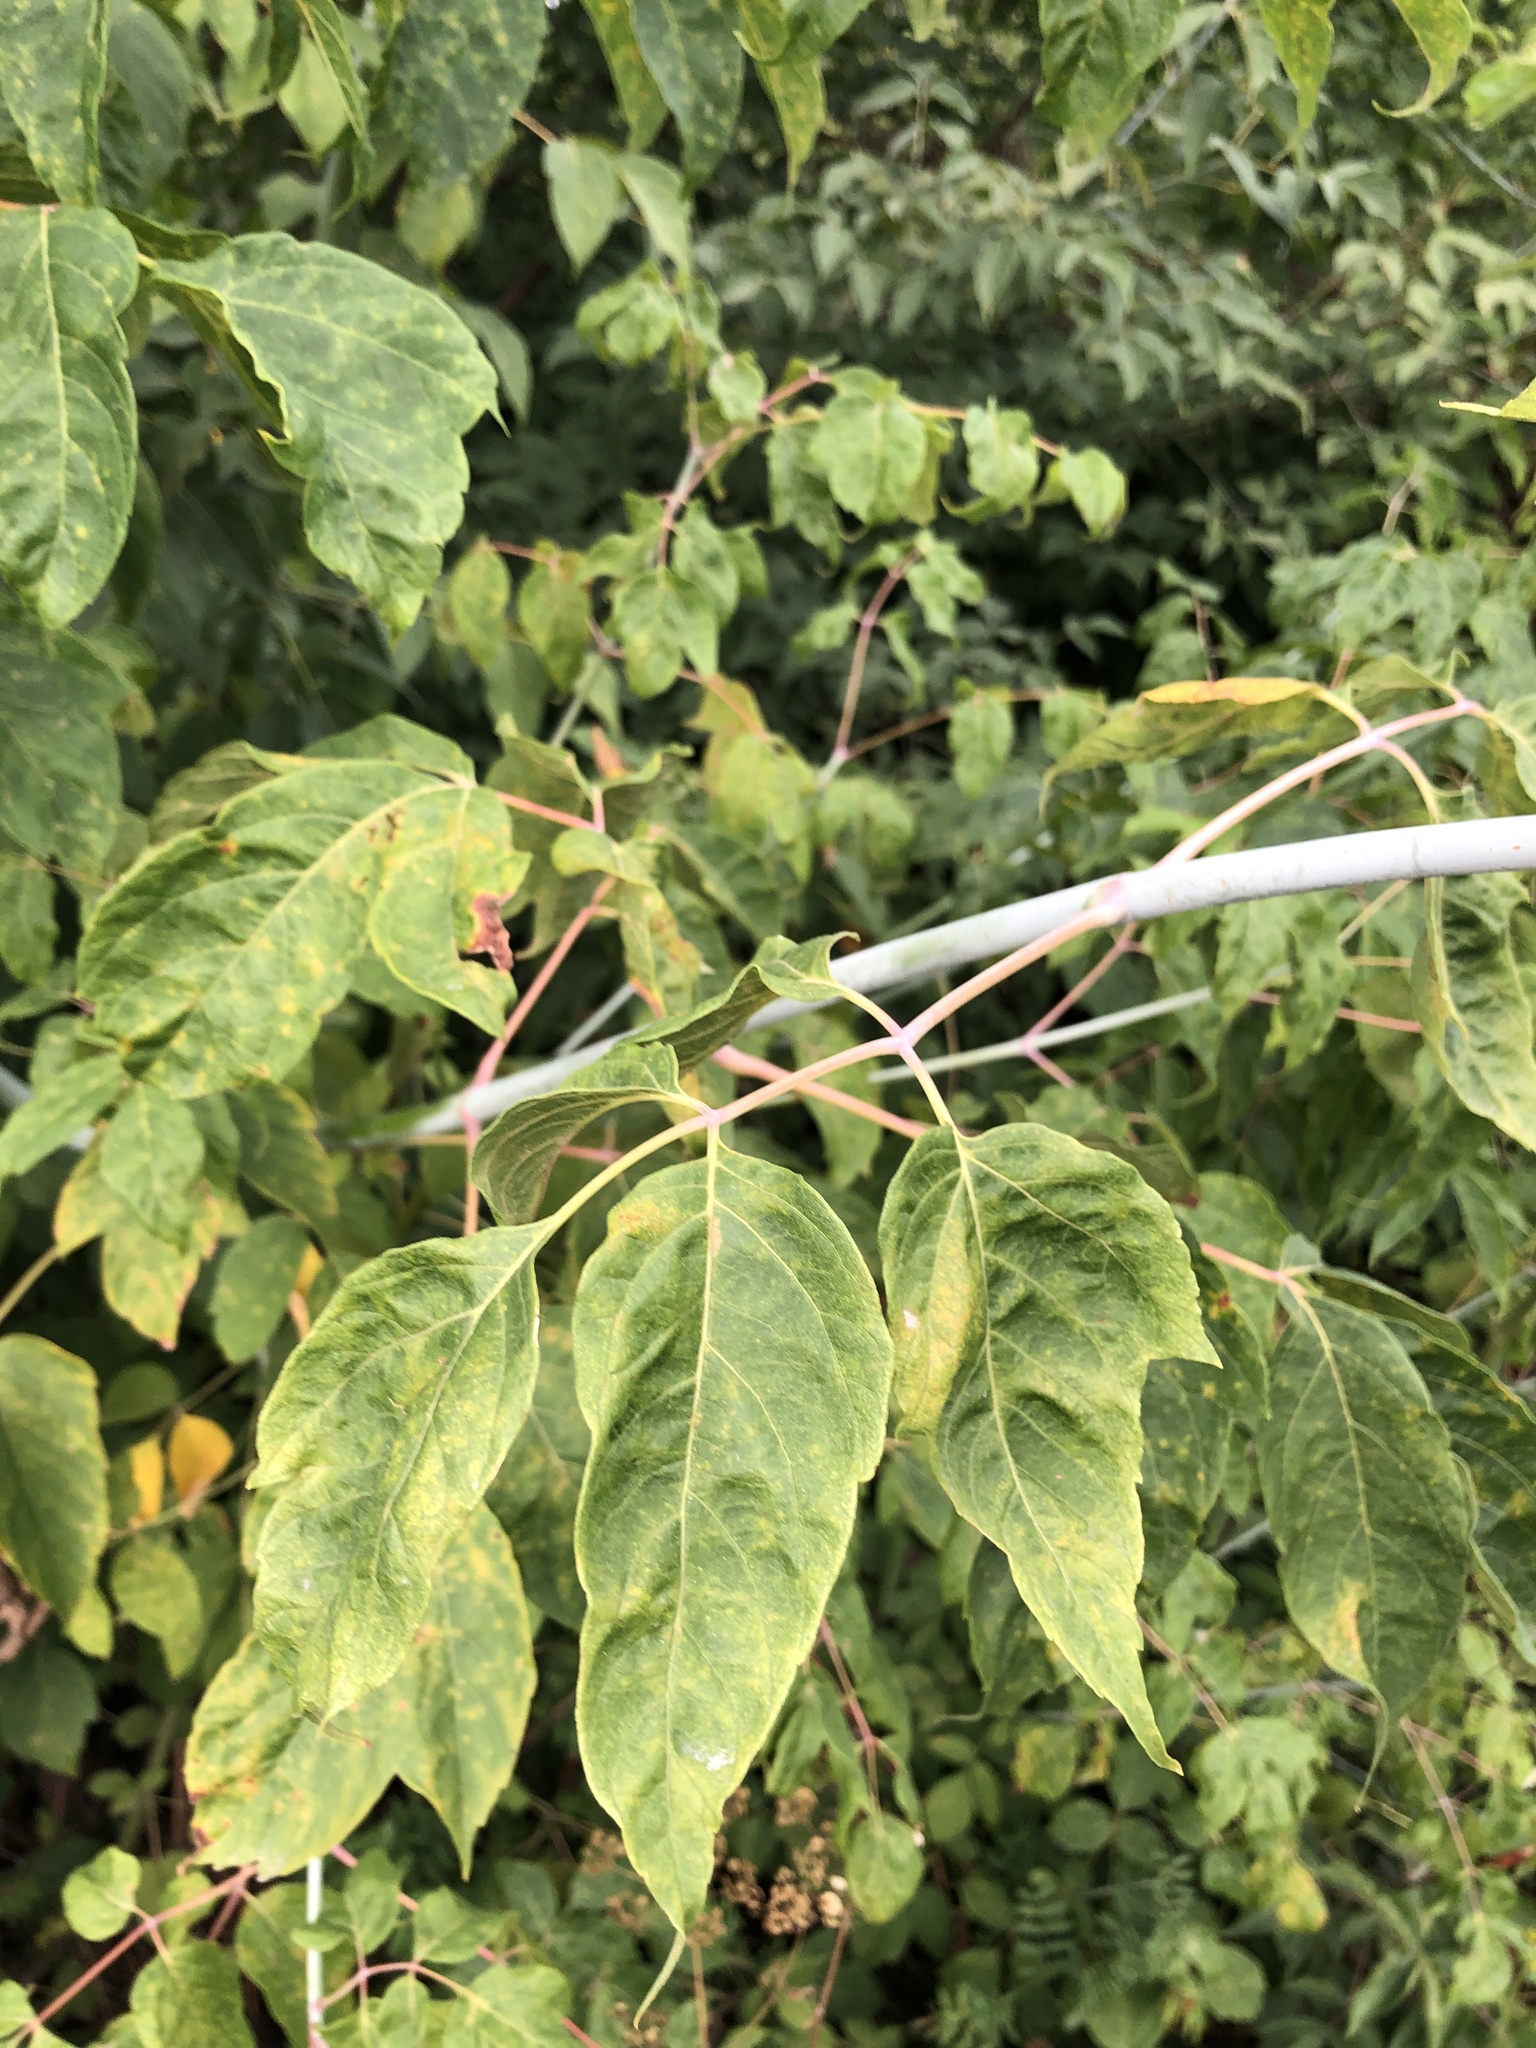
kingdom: Plantae
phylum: Tracheophyta
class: Magnoliopsida
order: Sapindales
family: Sapindaceae
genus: Acer
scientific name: Acer negundo
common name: Ashleaf maple
